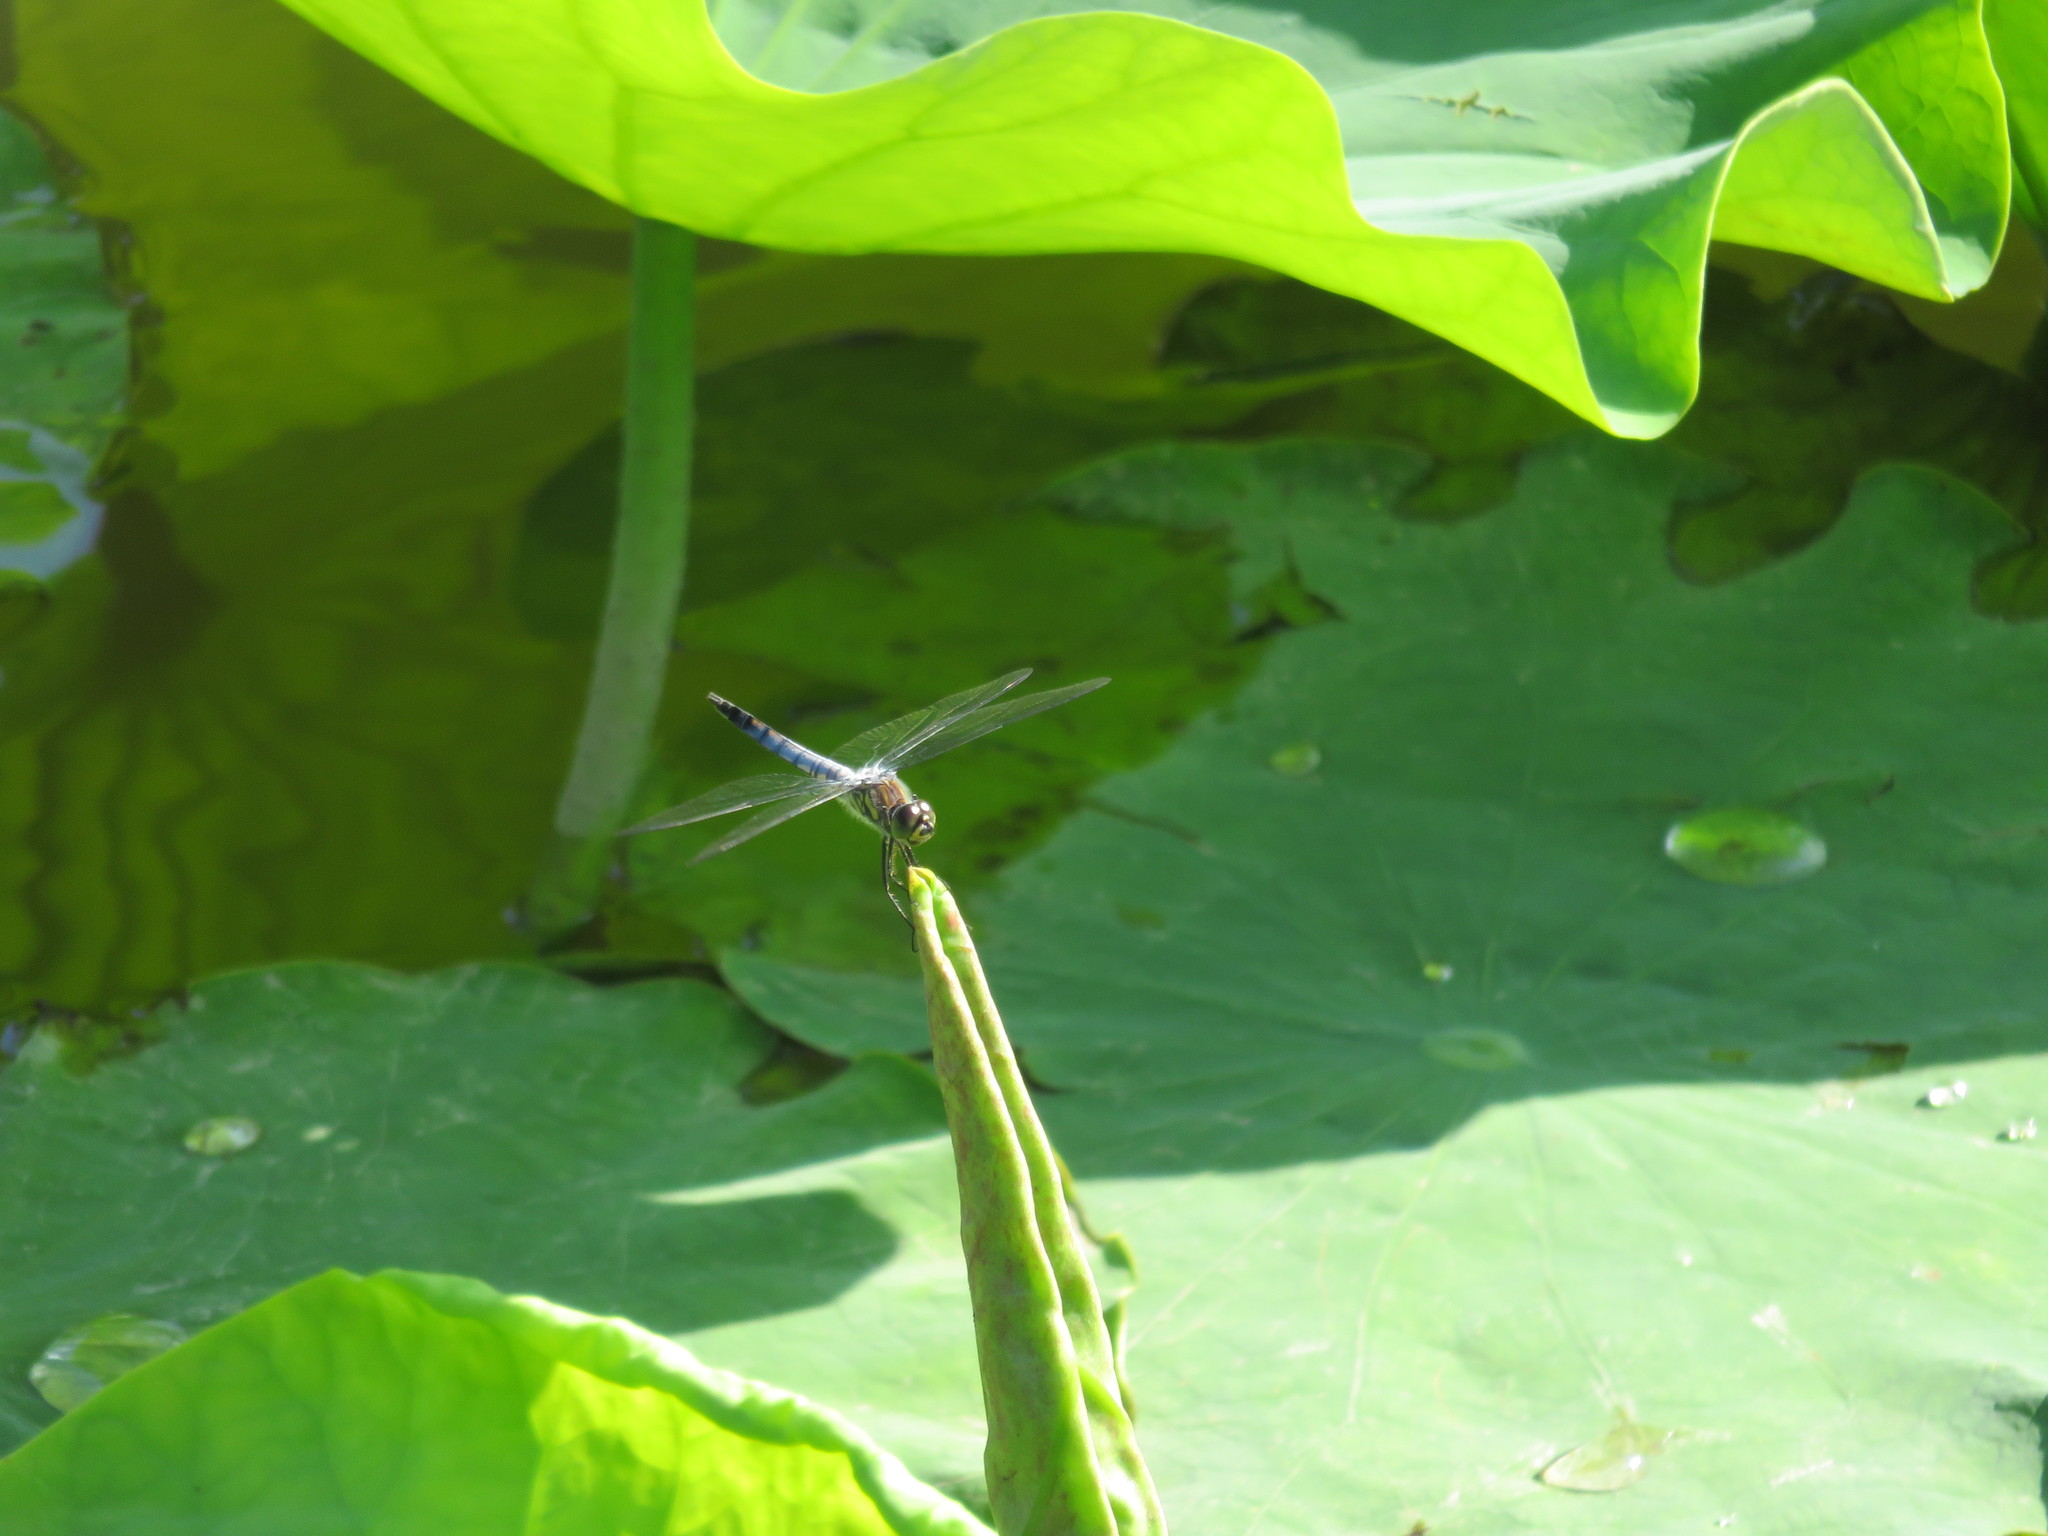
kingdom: Animalia
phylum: Arthropoda
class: Insecta
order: Odonata
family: Libellulidae
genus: Deielia
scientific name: Deielia phaon
